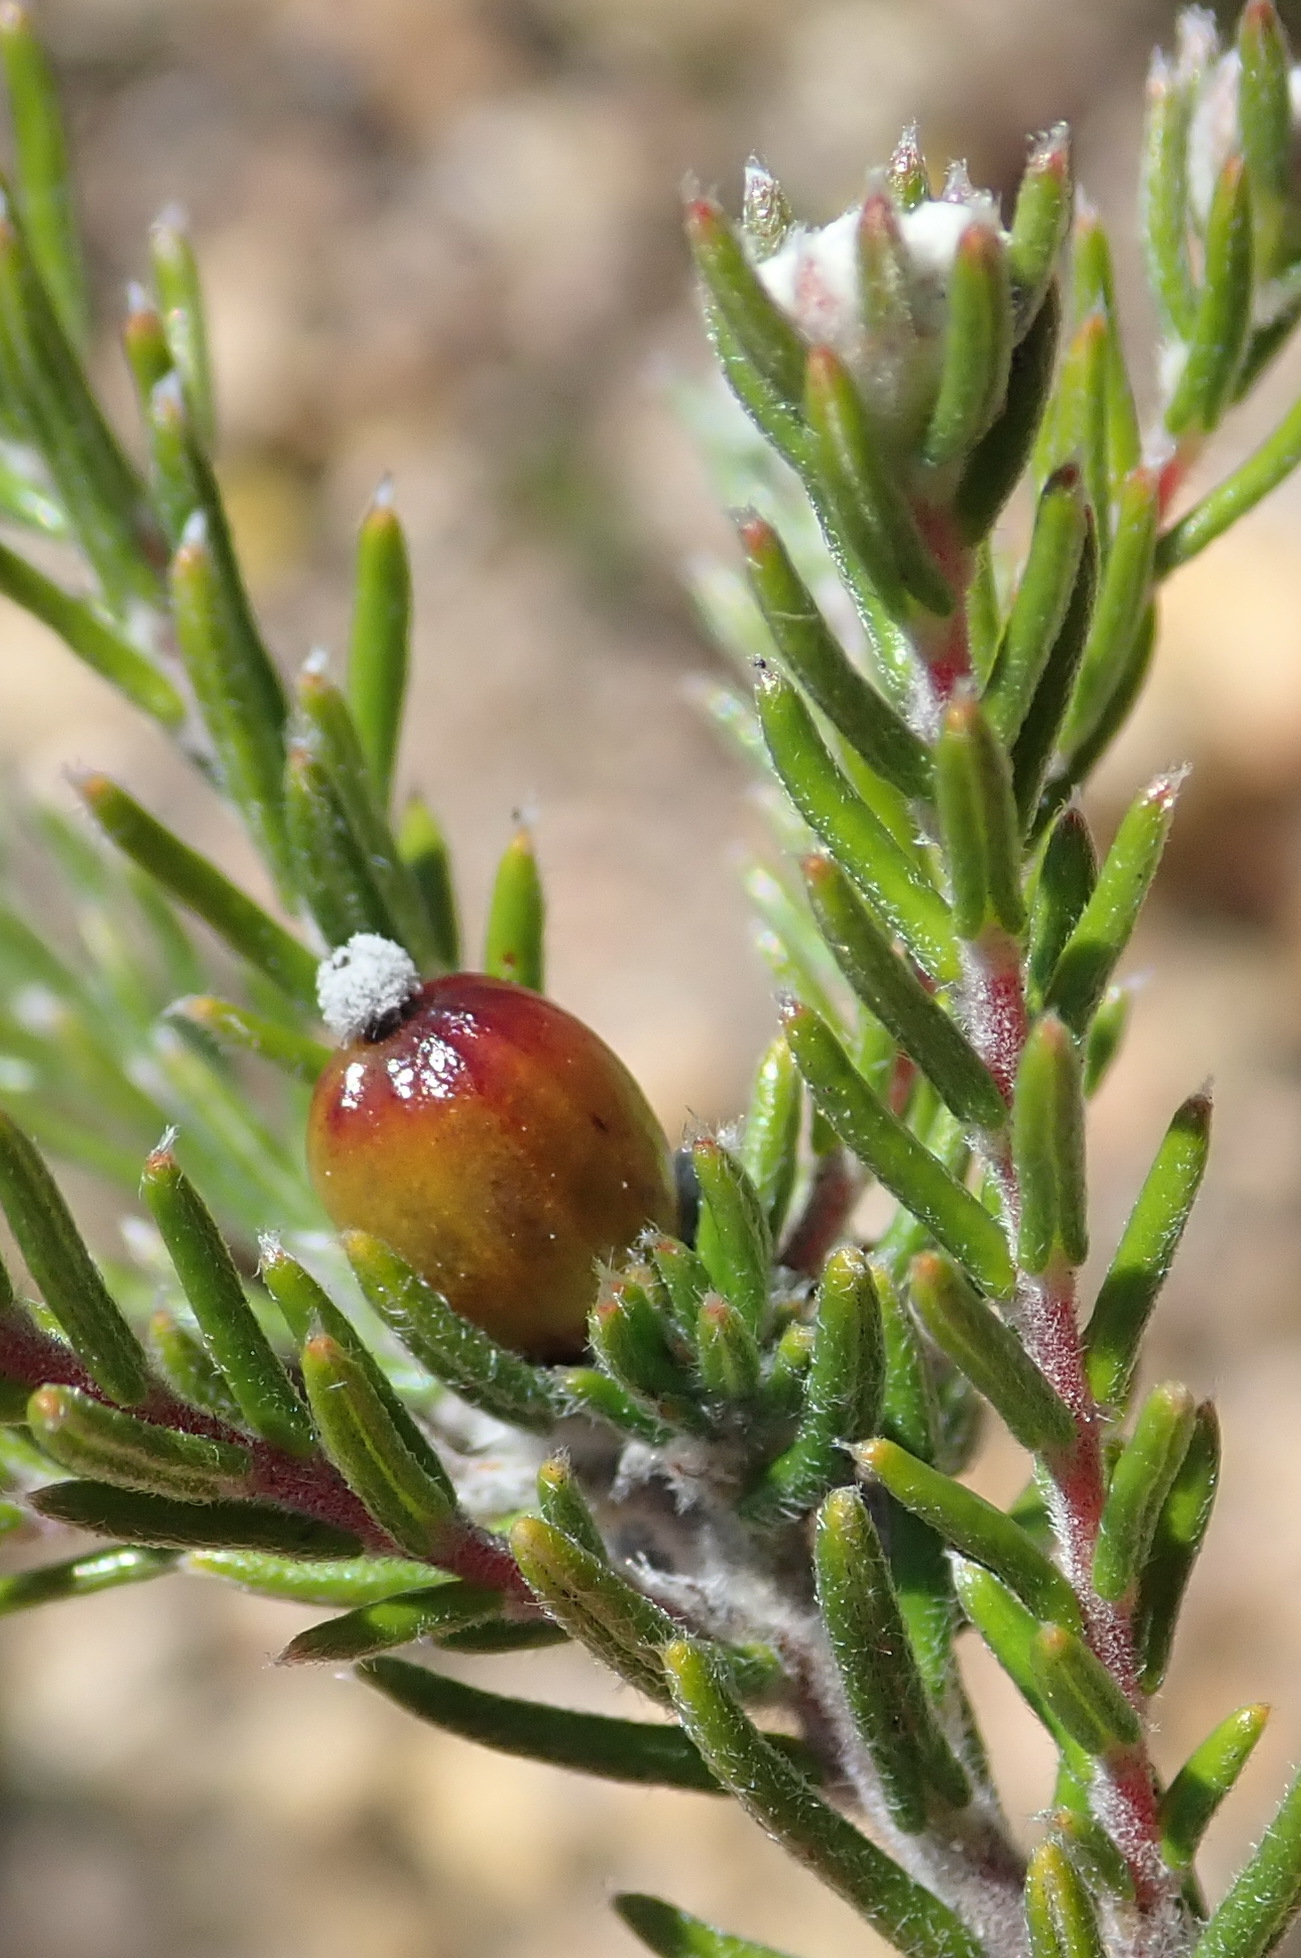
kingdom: Plantae
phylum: Tracheophyta
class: Magnoliopsida
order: Rosales
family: Rhamnaceae
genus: Phylica
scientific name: Phylica karroica
